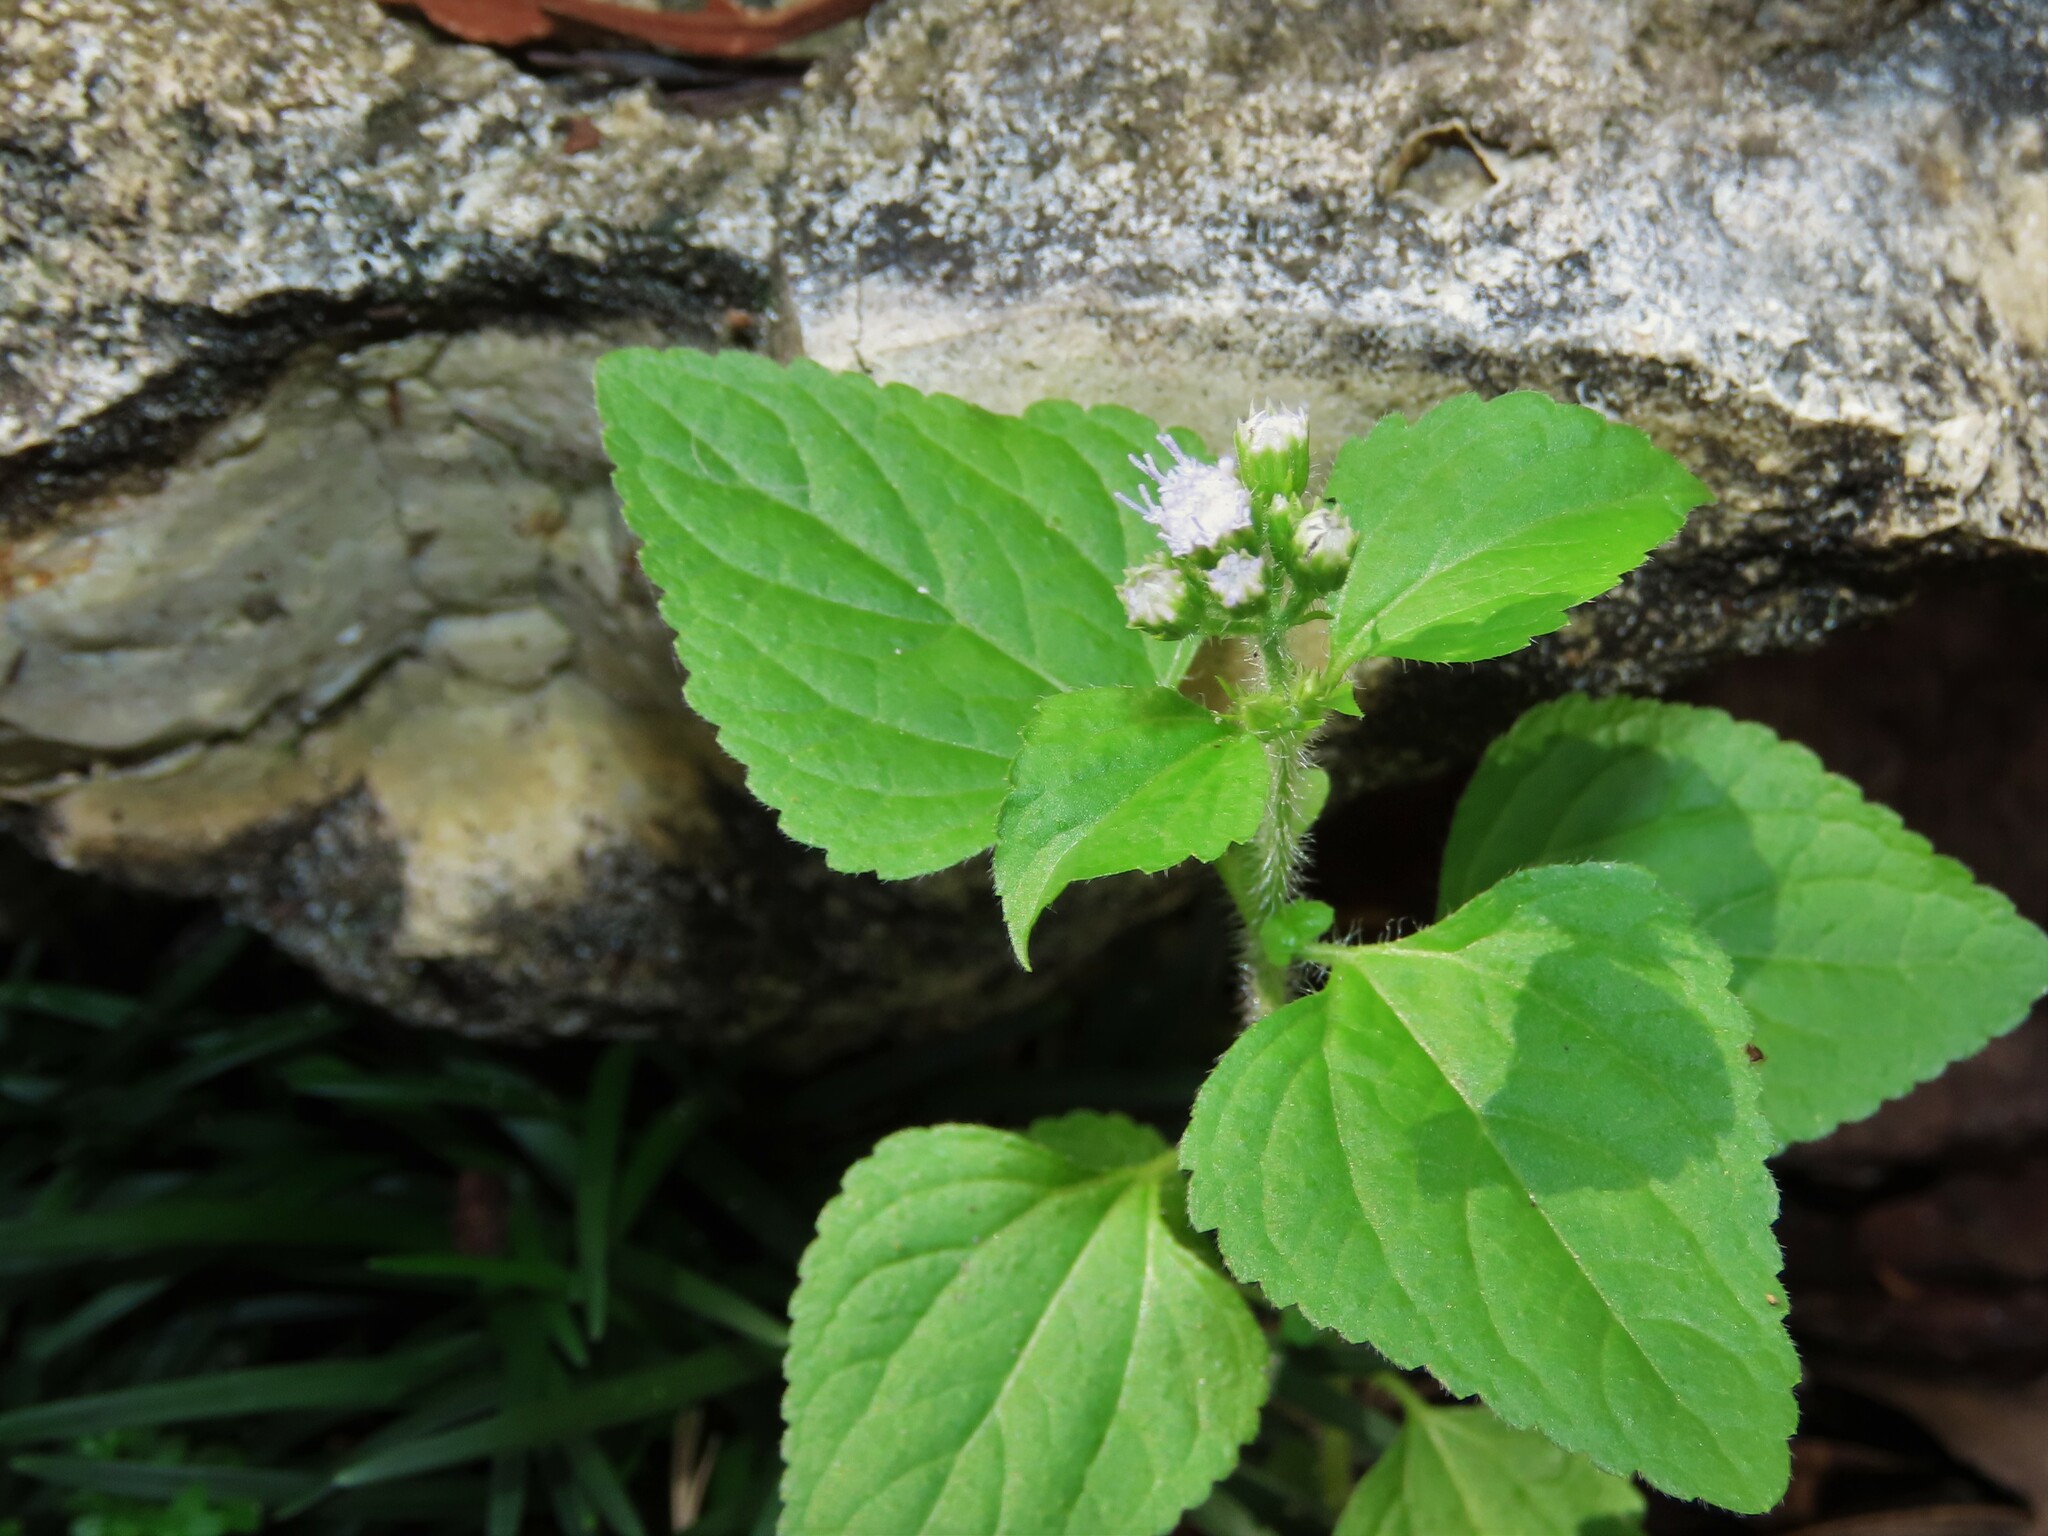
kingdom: Plantae
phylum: Tracheophyta
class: Magnoliopsida
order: Asterales
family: Asteraceae
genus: Ageratum
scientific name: Ageratum conyzoides
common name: Tropical whiteweed
